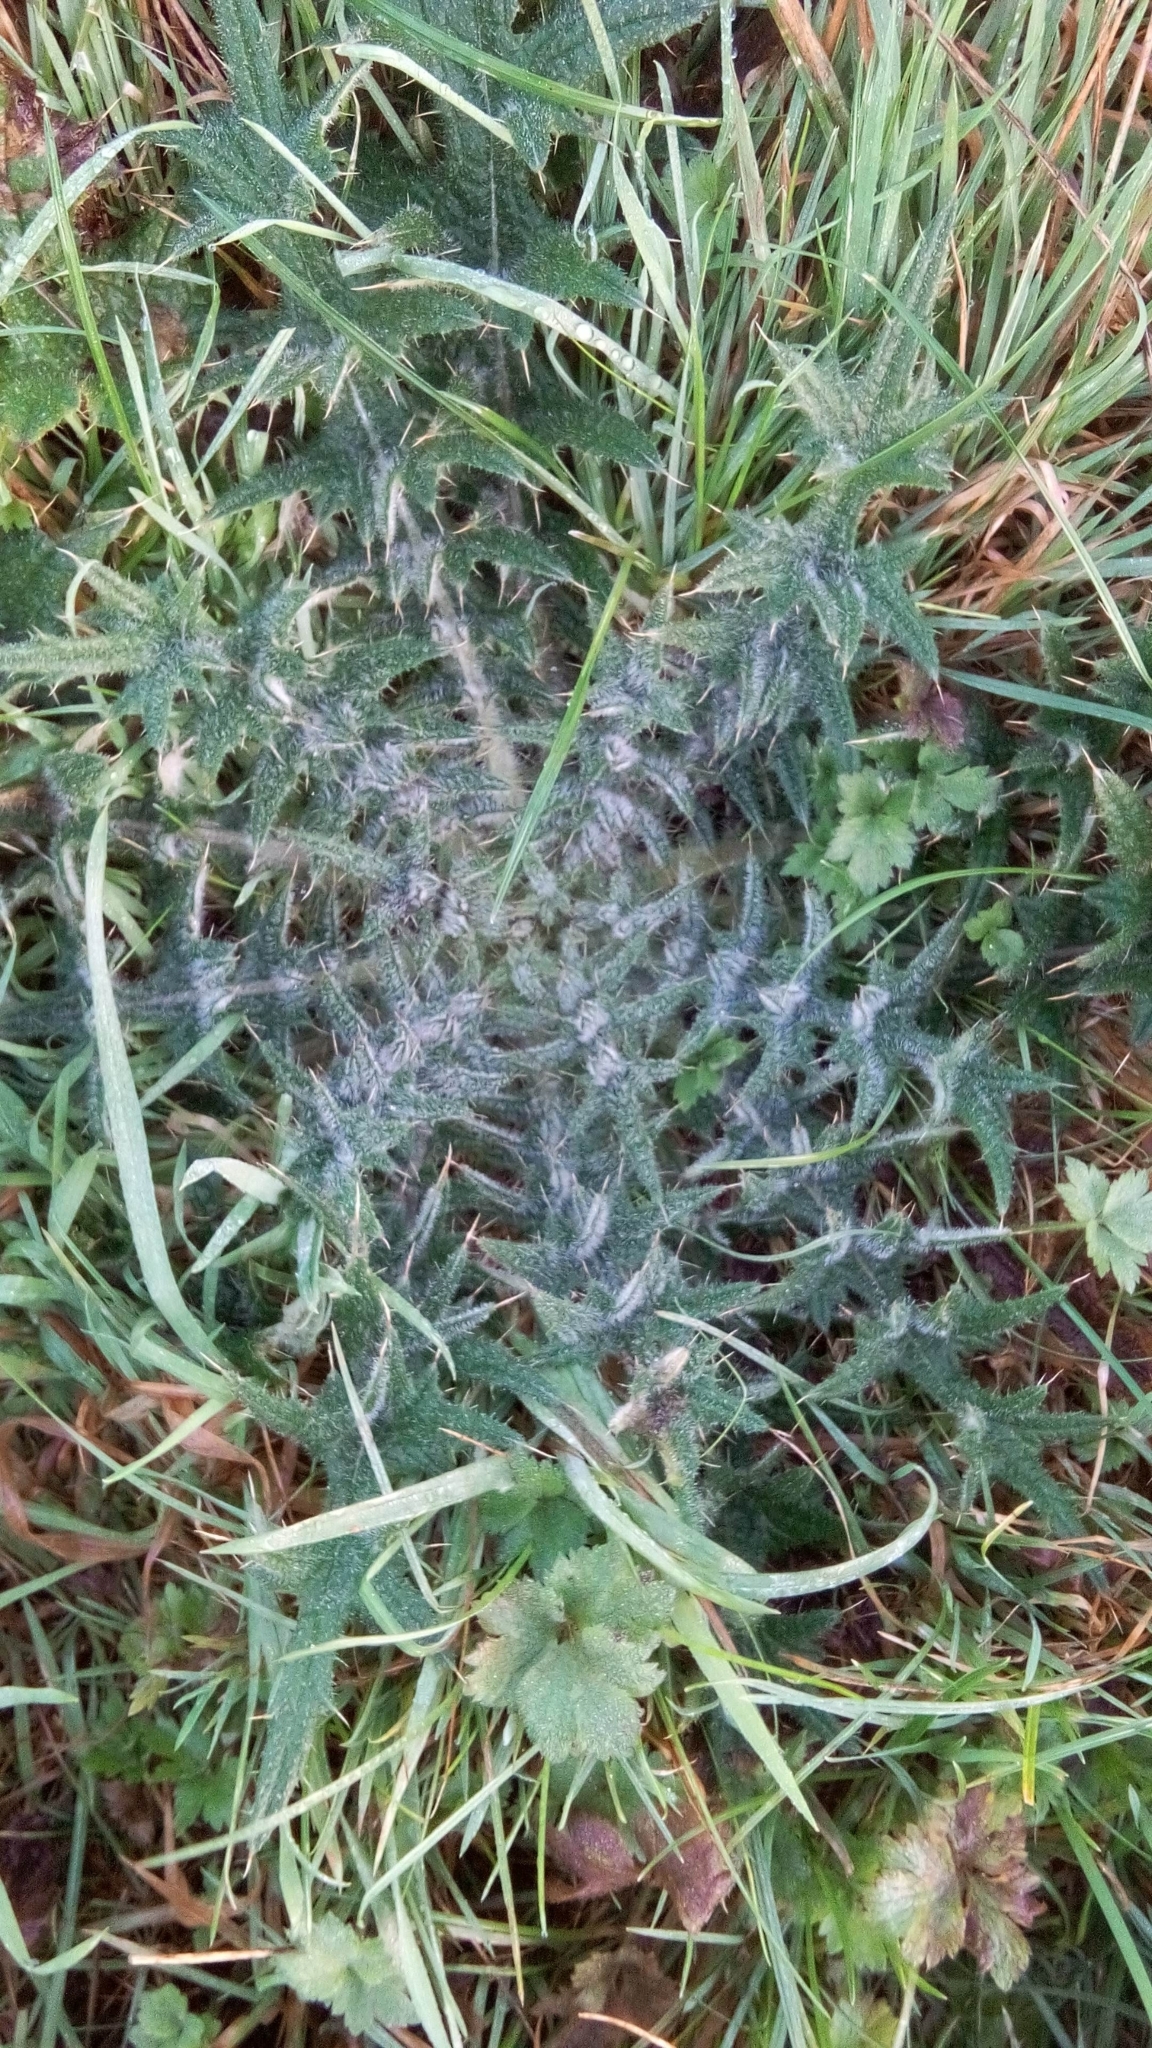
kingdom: Plantae
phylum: Tracheophyta
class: Magnoliopsida
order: Asterales
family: Asteraceae
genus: Cirsium
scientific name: Cirsium vulgare
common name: Bull thistle
